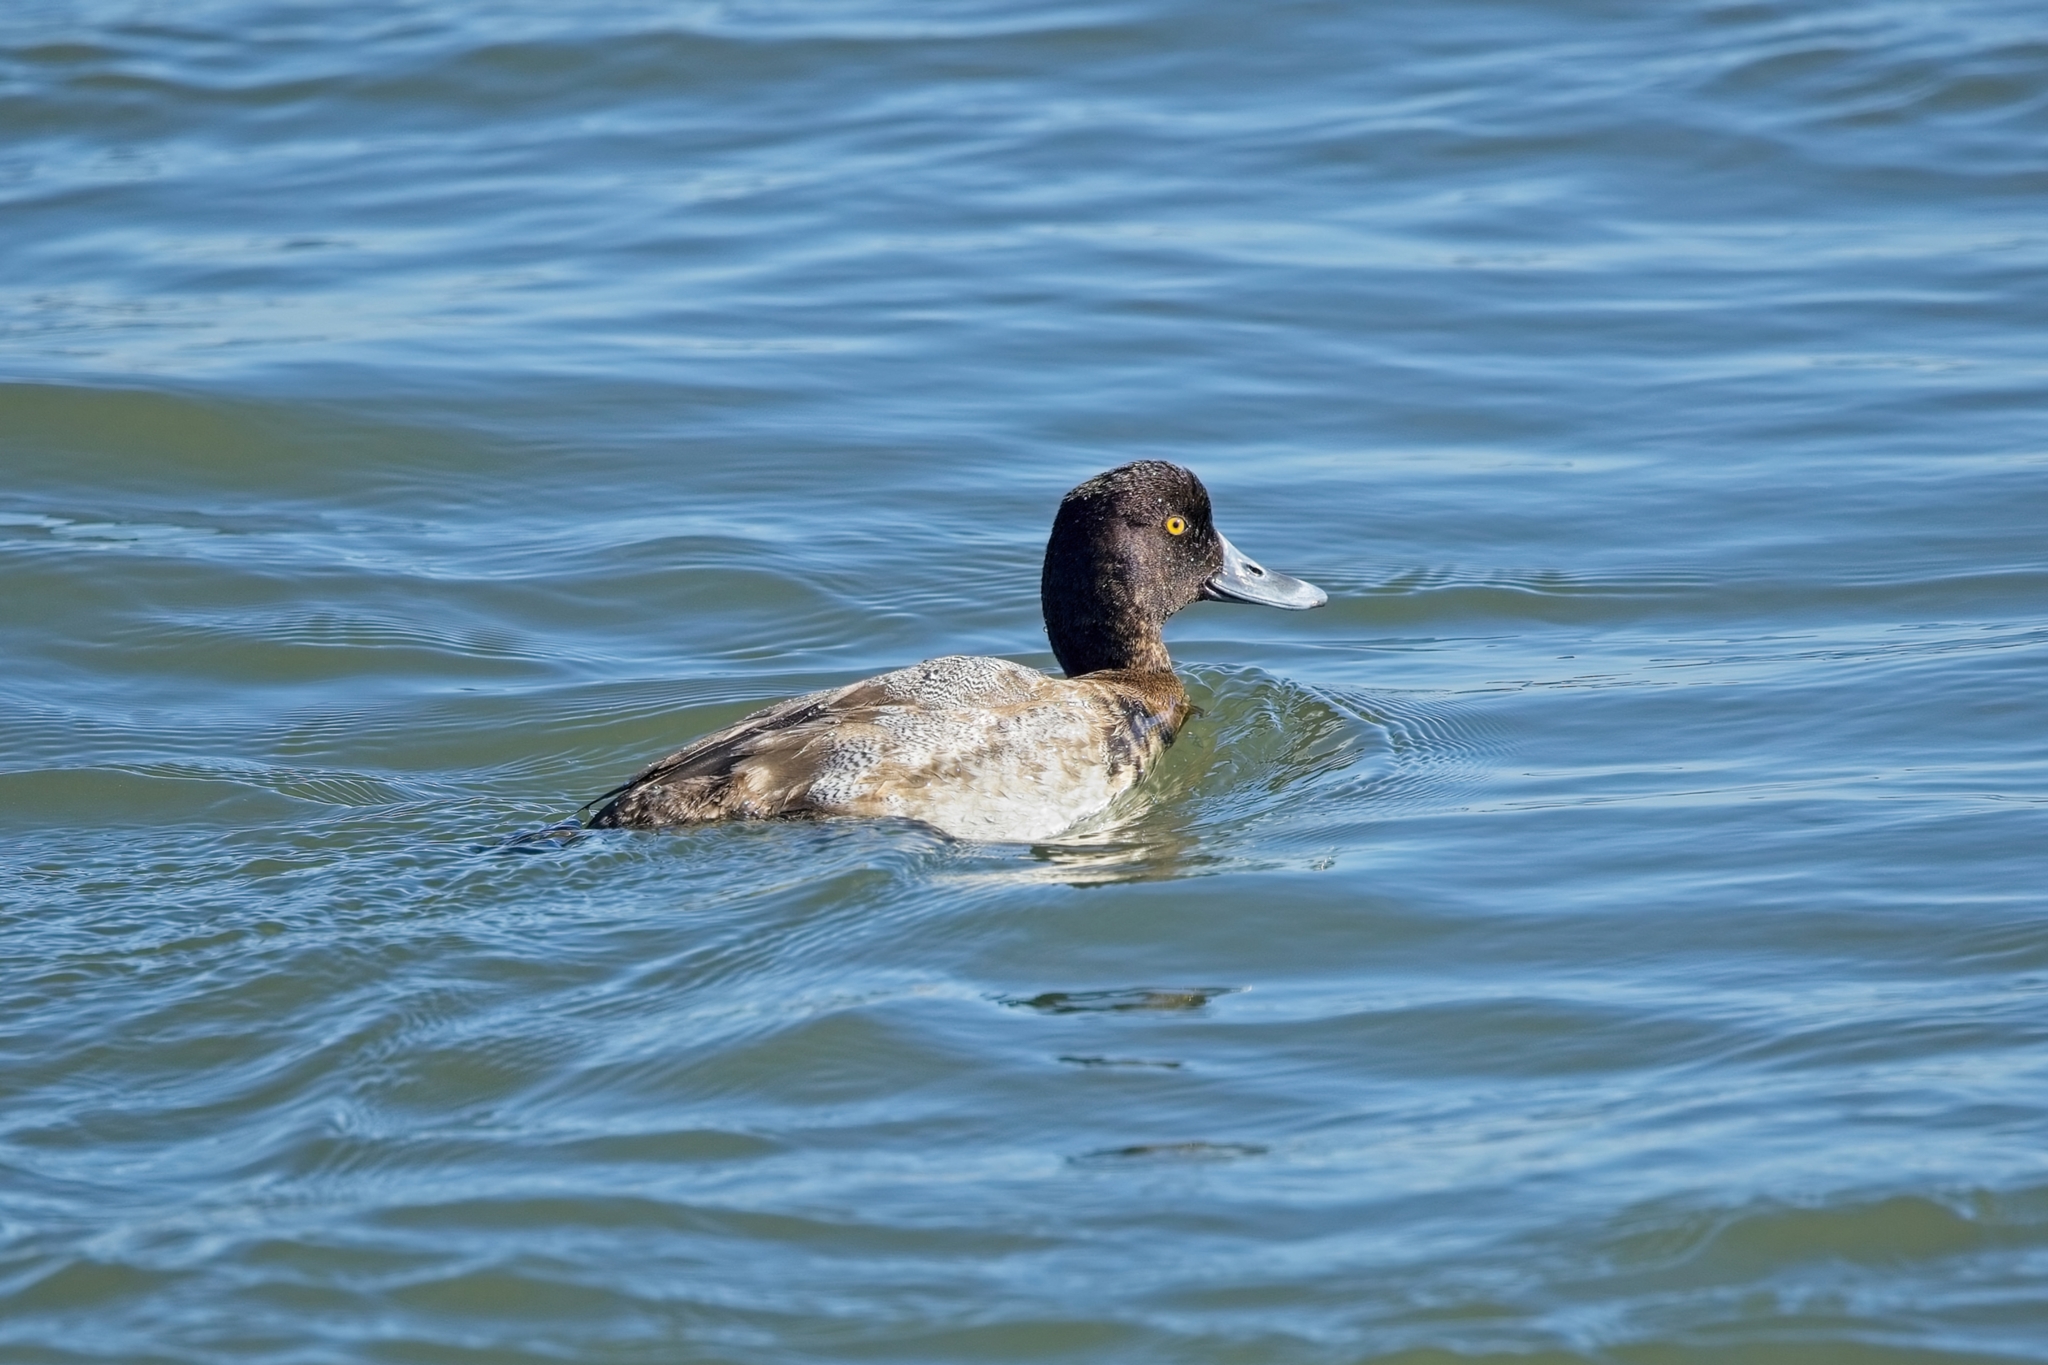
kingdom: Animalia
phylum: Chordata
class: Aves
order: Anseriformes
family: Anatidae
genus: Aythya
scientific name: Aythya affinis
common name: Lesser scaup
